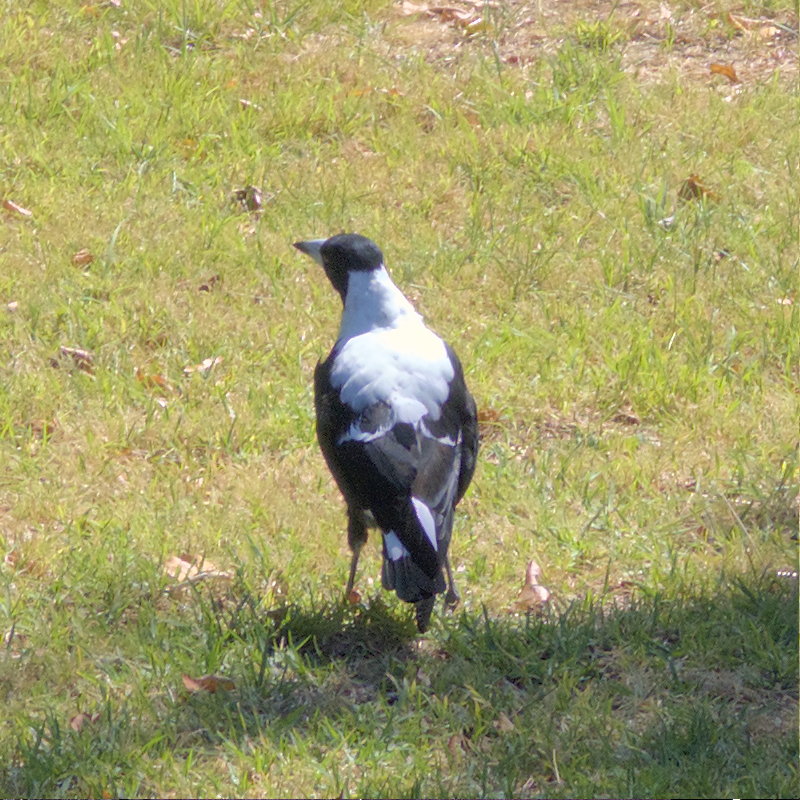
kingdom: Animalia
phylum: Chordata
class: Aves
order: Passeriformes
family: Cracticidae
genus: Gymnorhina
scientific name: Gymnorhina tibicen
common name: Australian magpie
